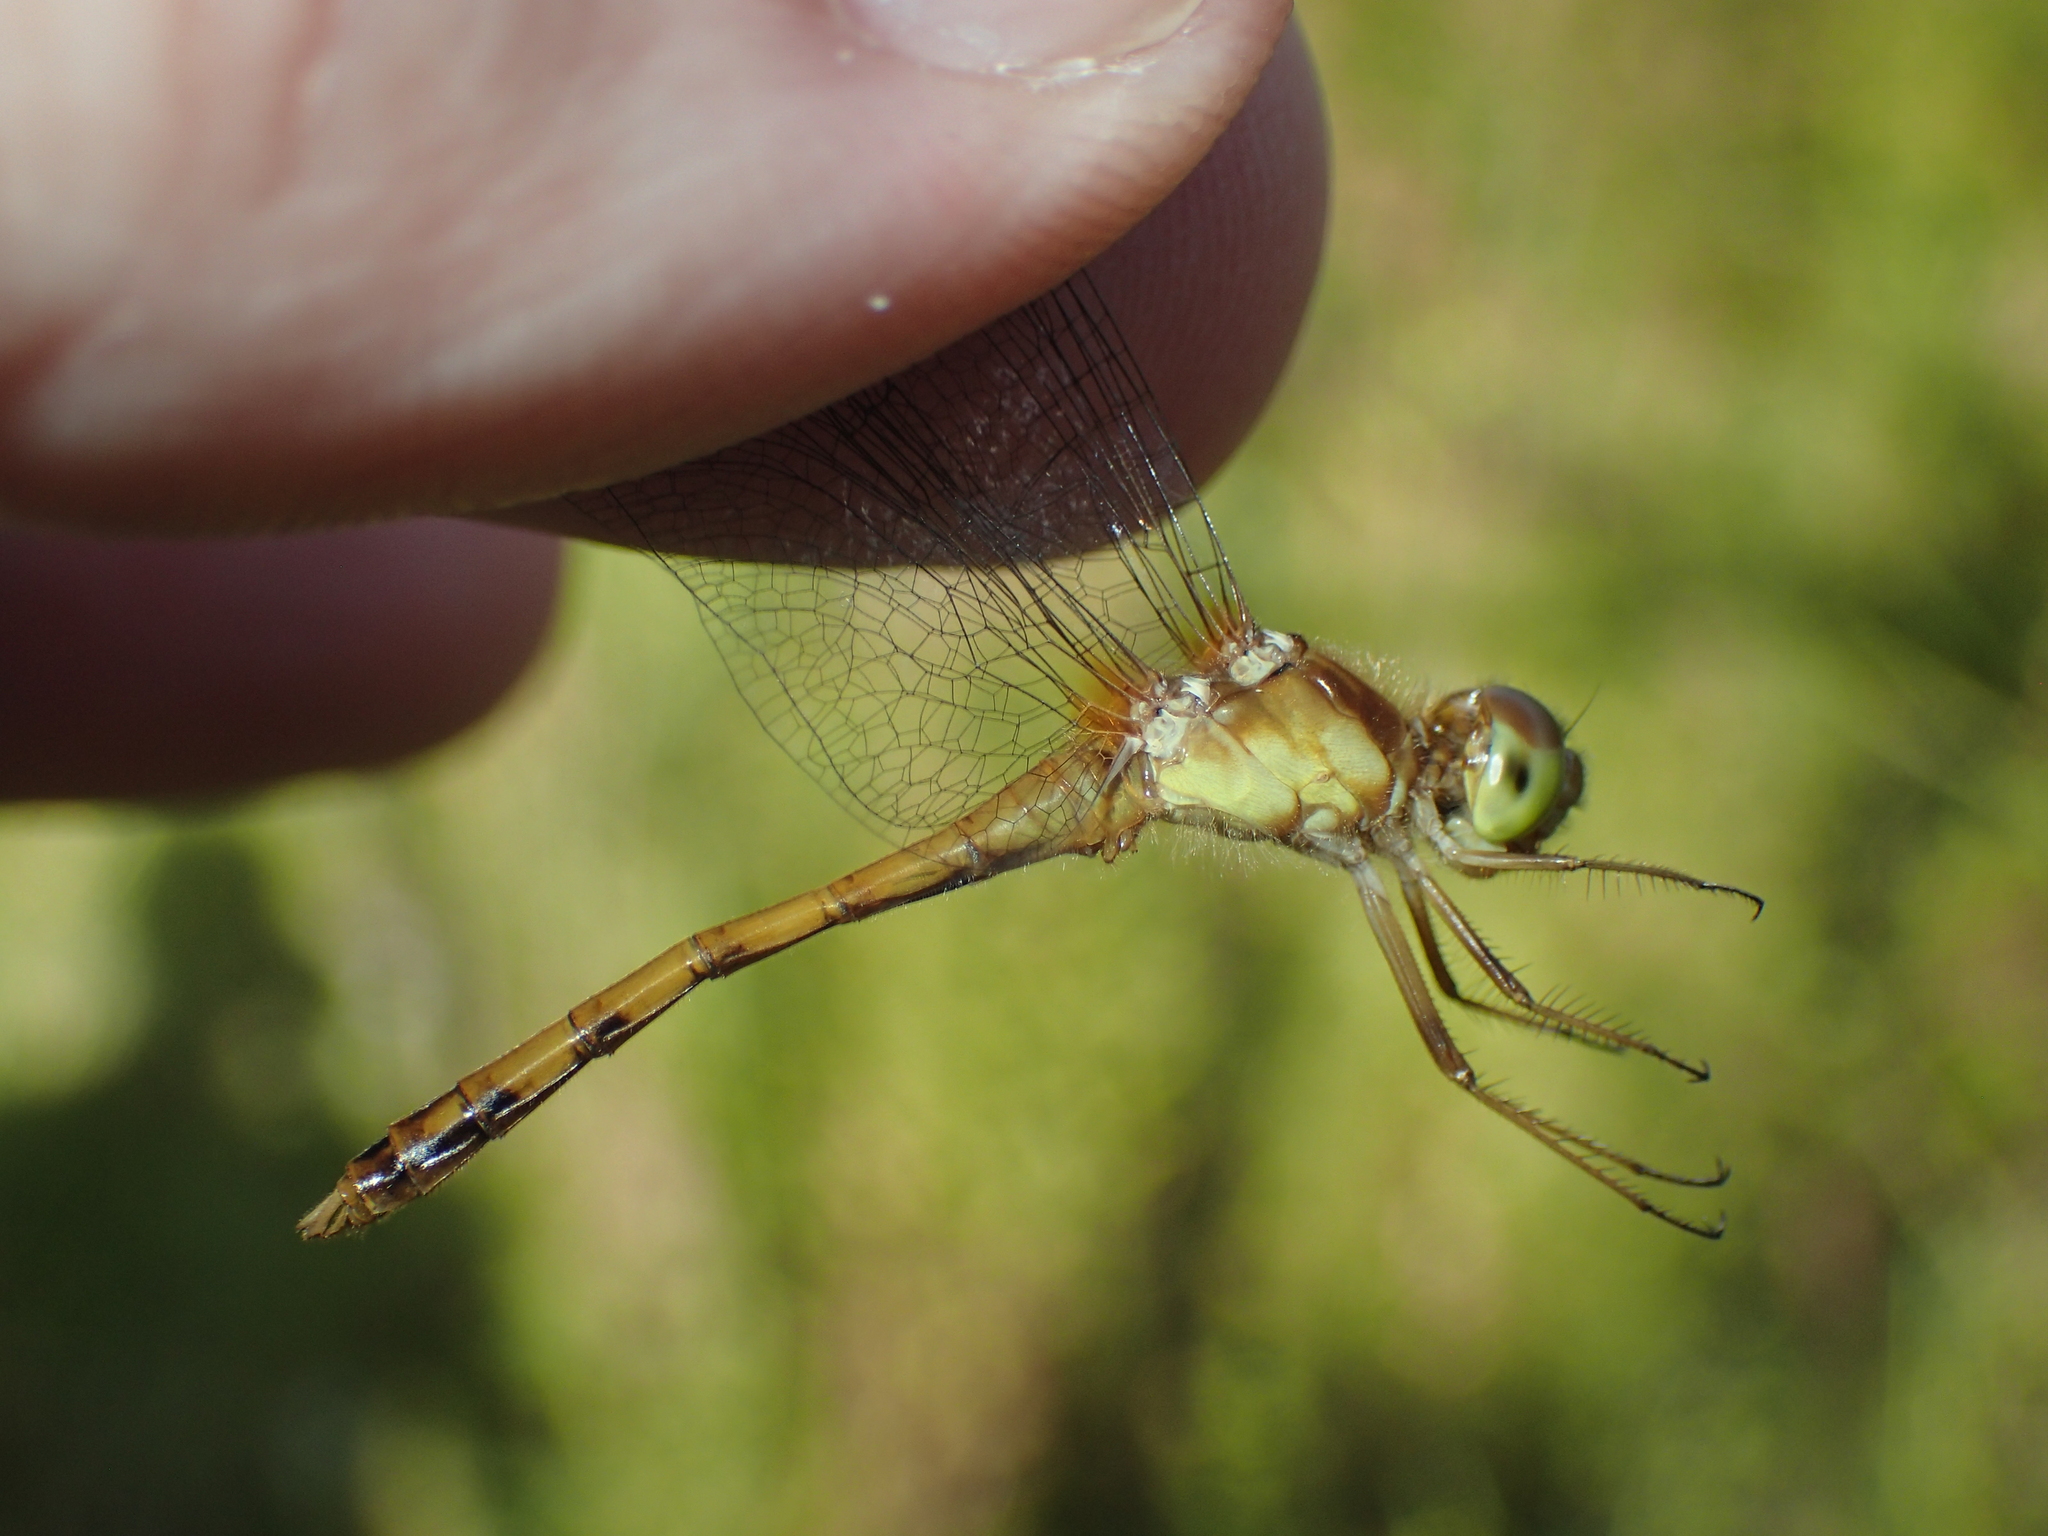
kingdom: Animalia
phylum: Arthropoda
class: Insecta
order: Odonata
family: Libellulidae
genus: Sympetrum
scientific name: Sympetrum vicinum
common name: Autumn meadowhawk
